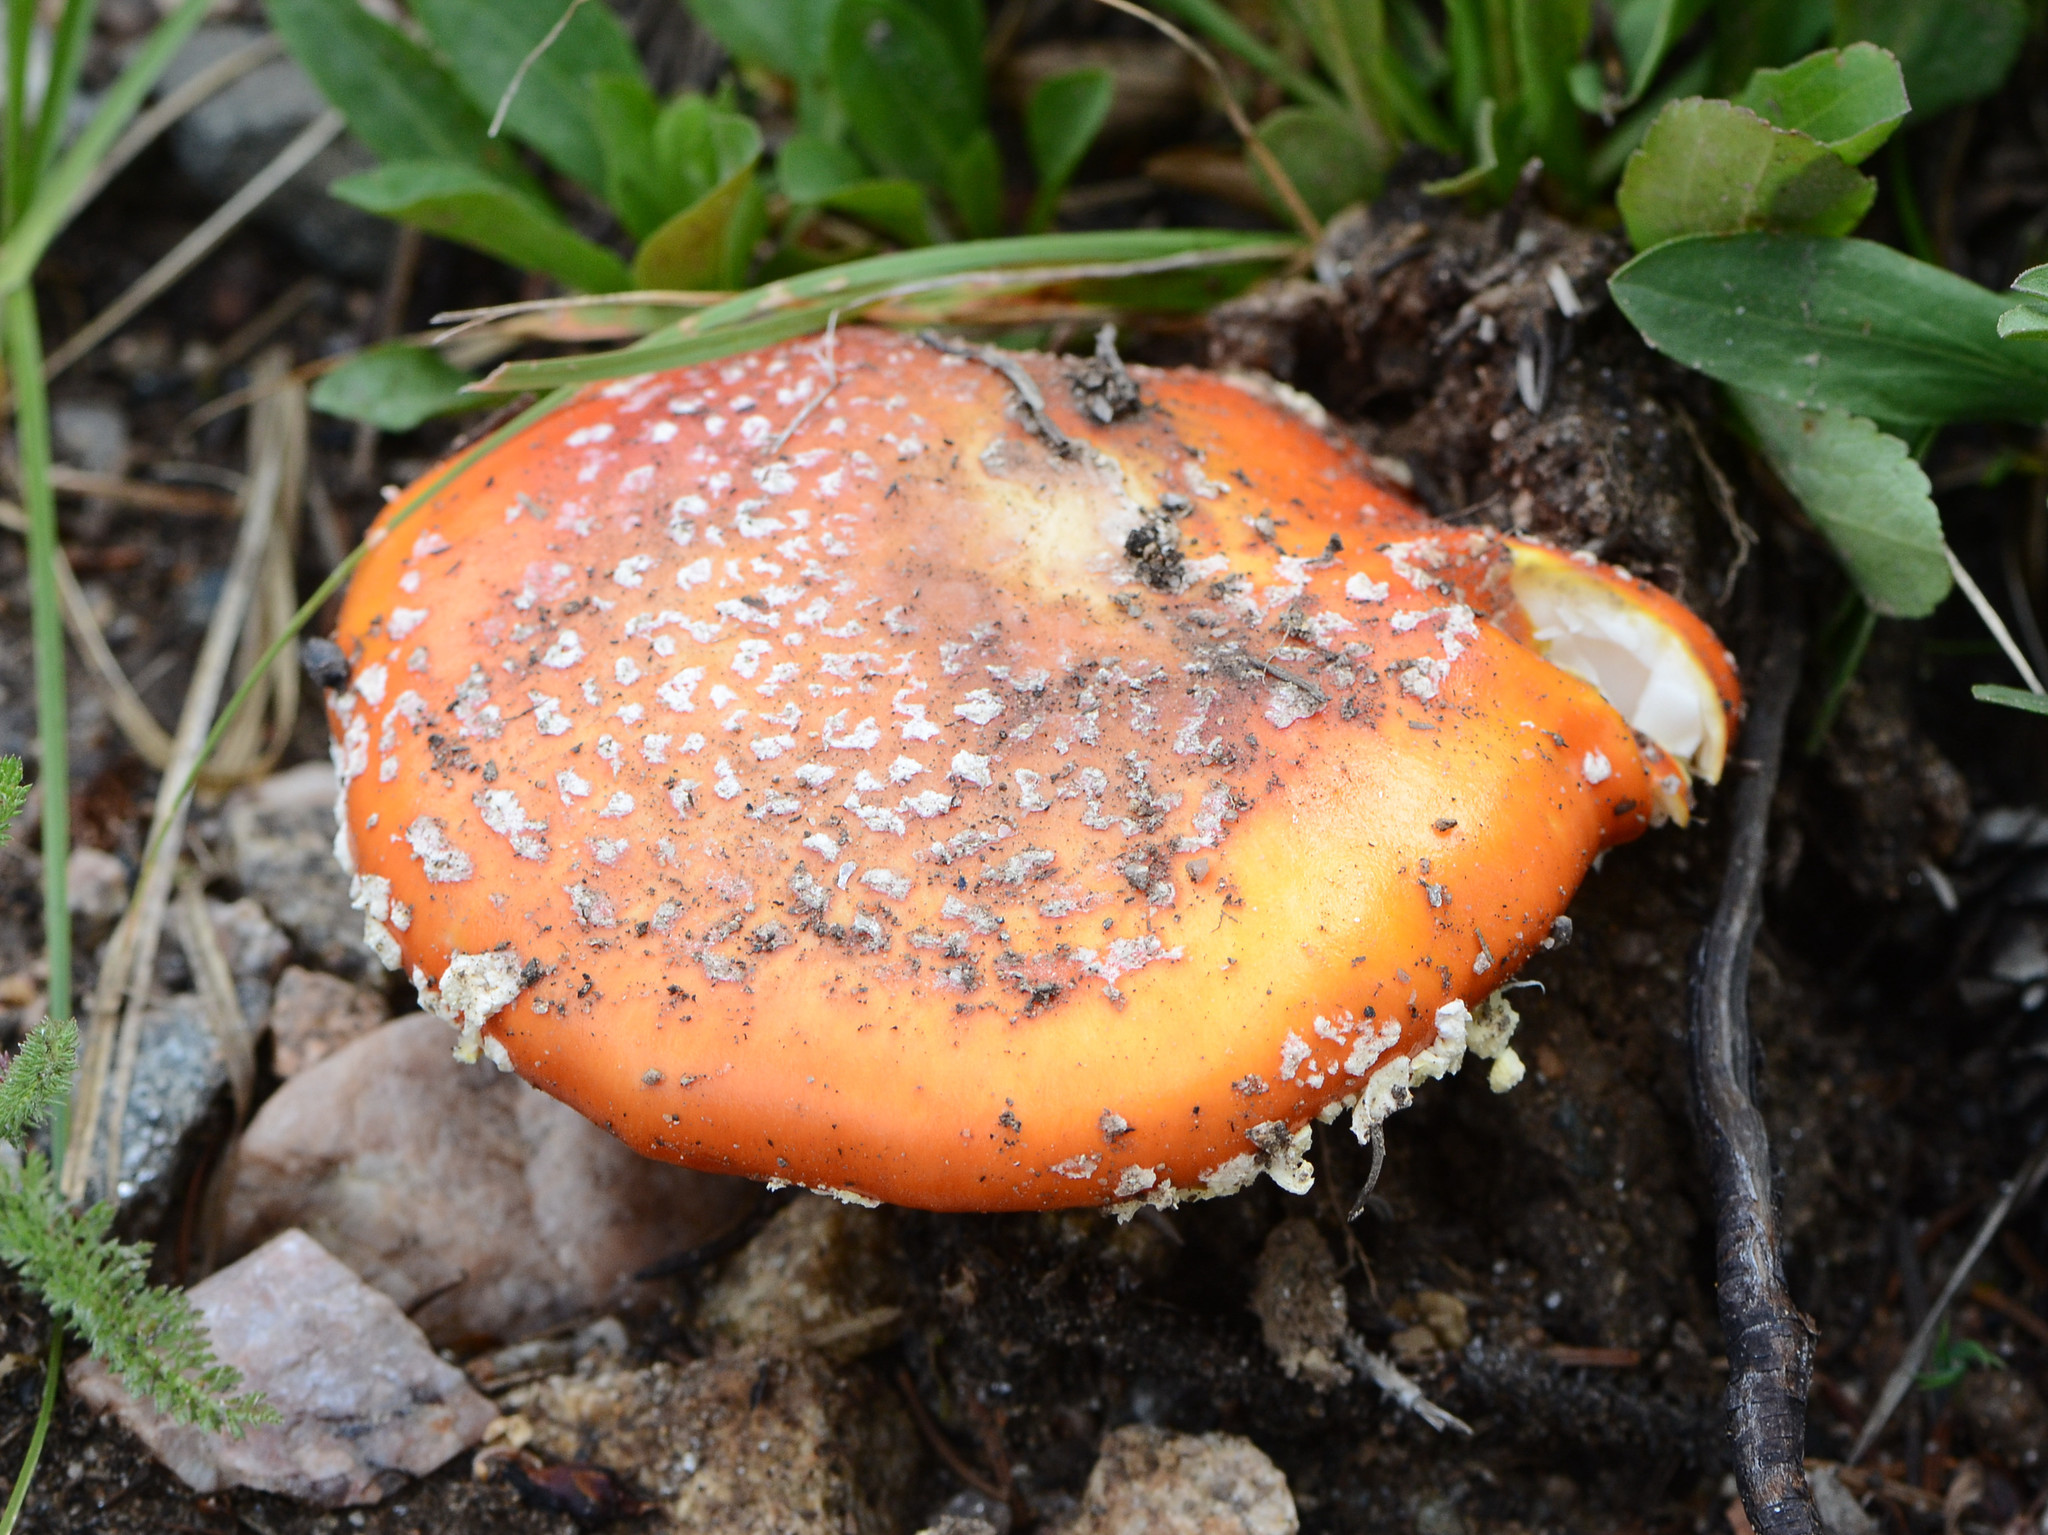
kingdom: Fungi
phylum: Basidiomycota
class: Agaricomycetes
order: Agaricales
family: Amanitaceae
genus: Amanita
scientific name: Amanita muscaria
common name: Fly agaric
